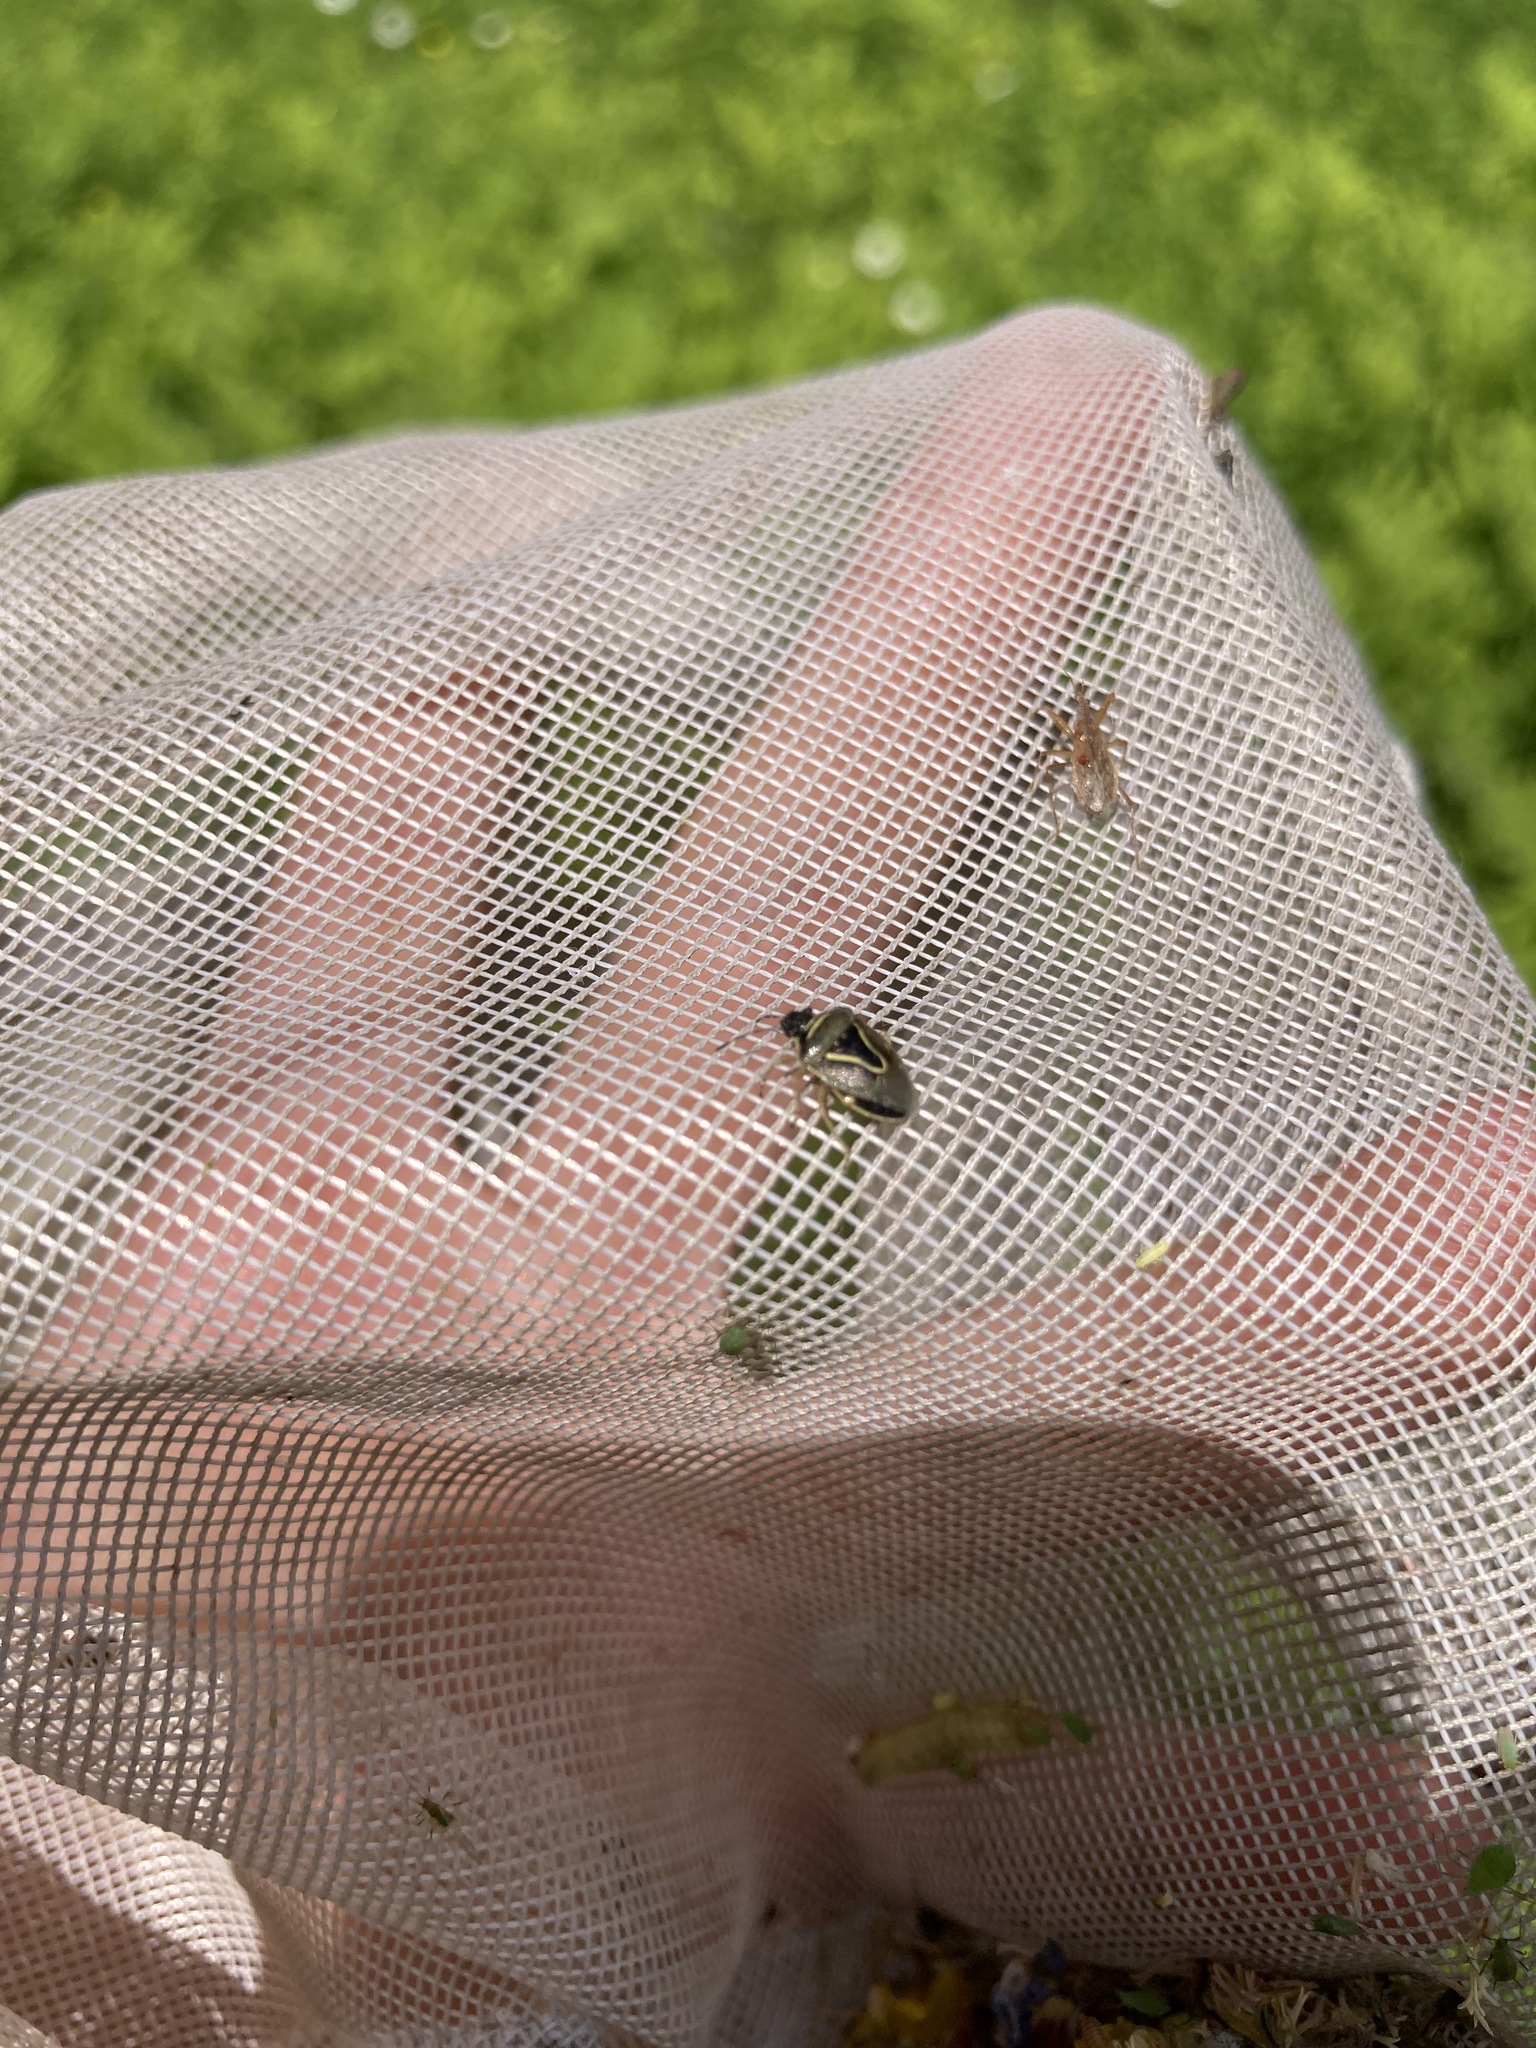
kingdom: Animalia
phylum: Arthropoda
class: Insecta
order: Hemiptera
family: Pentatomidae
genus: Mormidea
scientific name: Mormidea lugens
